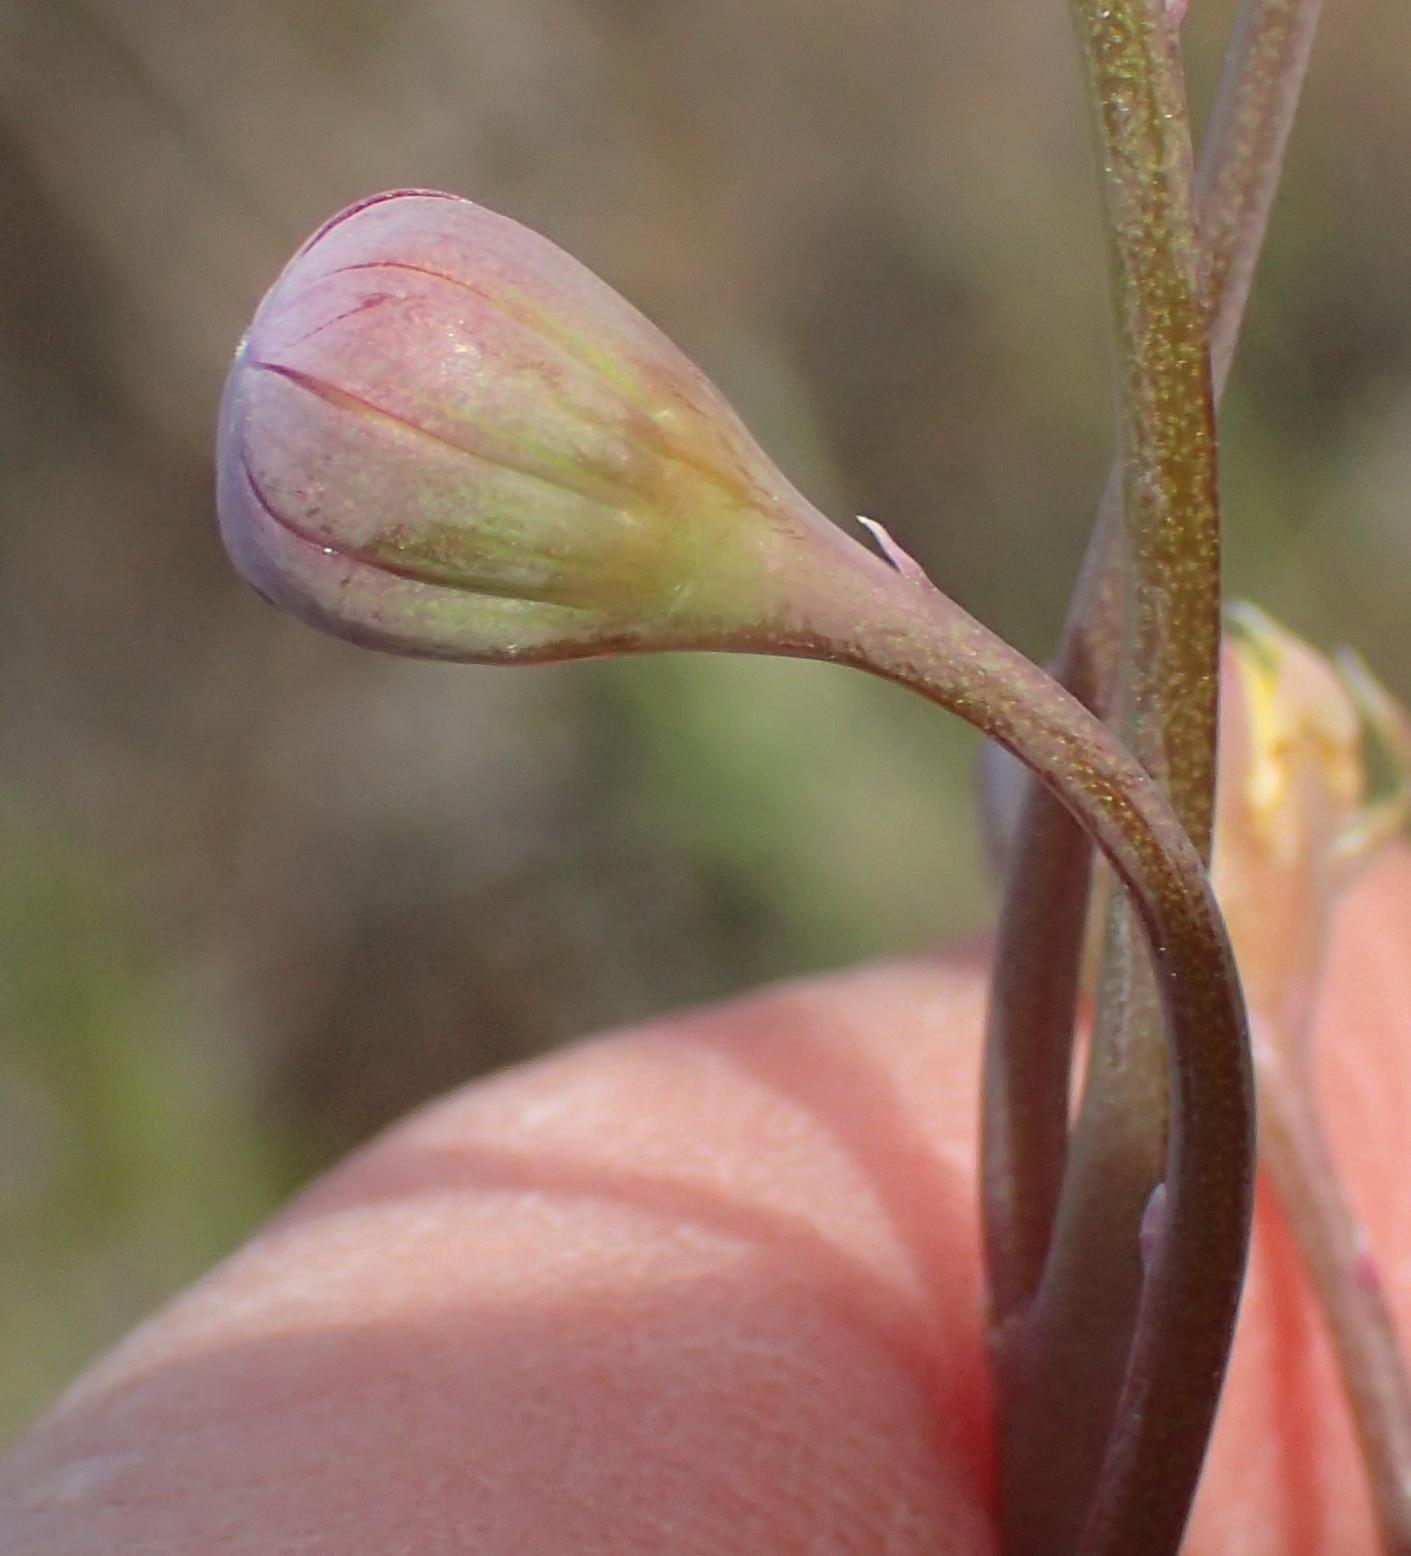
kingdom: Plantae
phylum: Tracheophyta
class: Magnoliopsida
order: Asterales
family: Asteraceae
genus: Crassothonna
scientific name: Crassothonna alba
